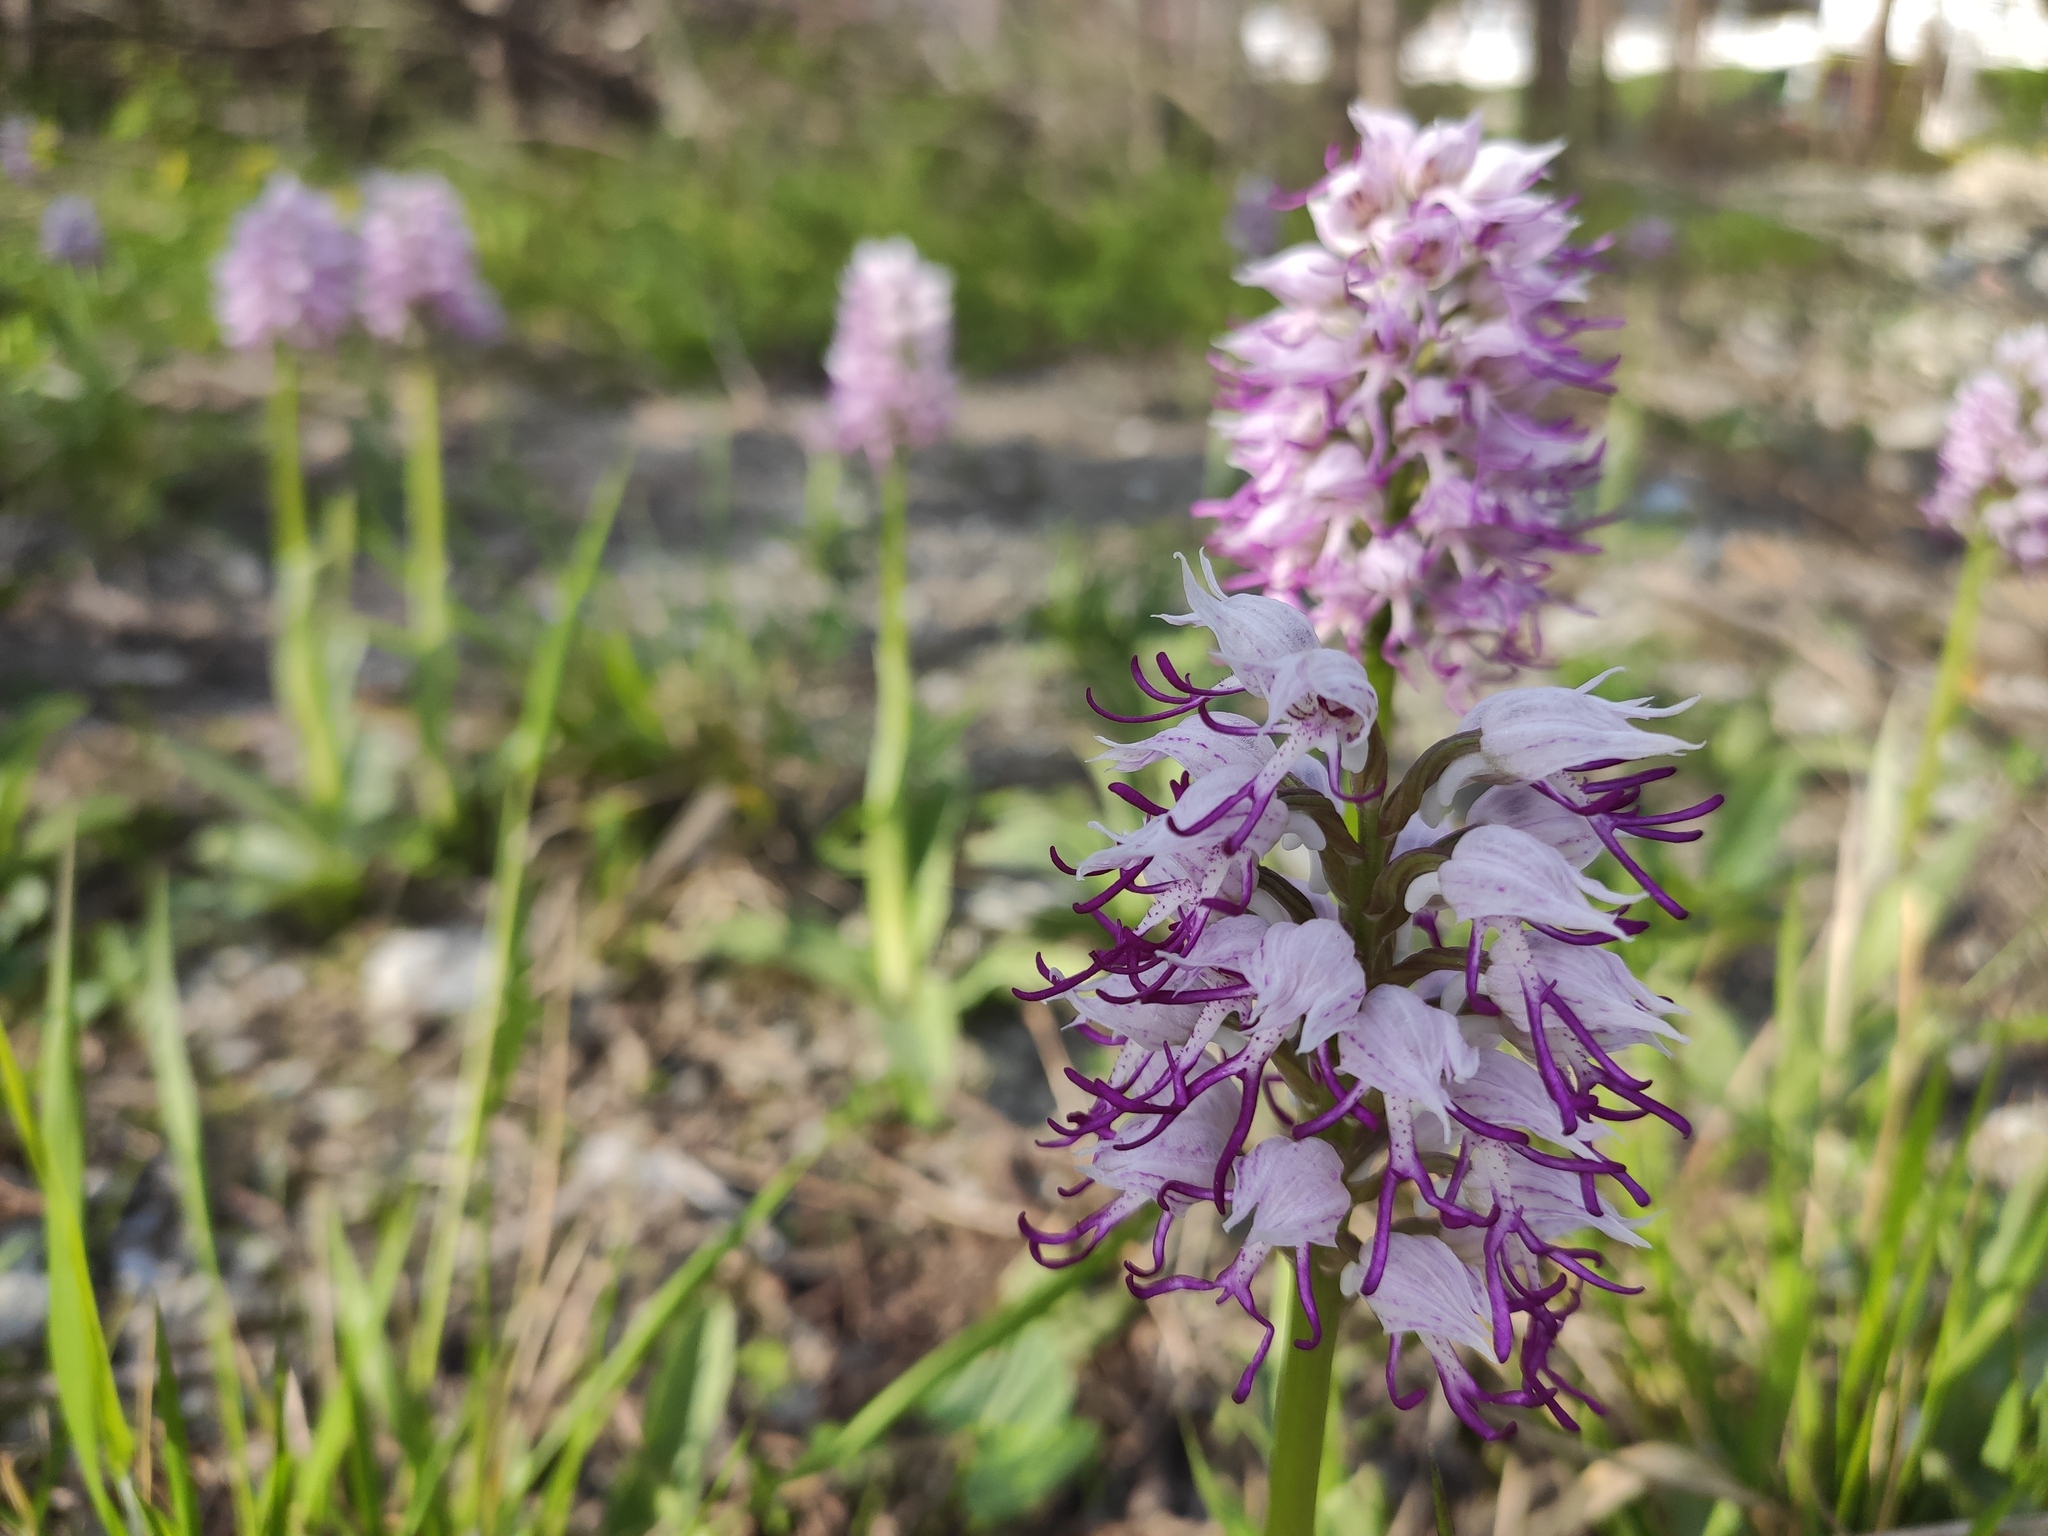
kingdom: Plantae
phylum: Tracheophyta
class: Liliopsida
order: Asparagales
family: Orchidaceae
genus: Orchis
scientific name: Orchis simia
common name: Monkey orchid
